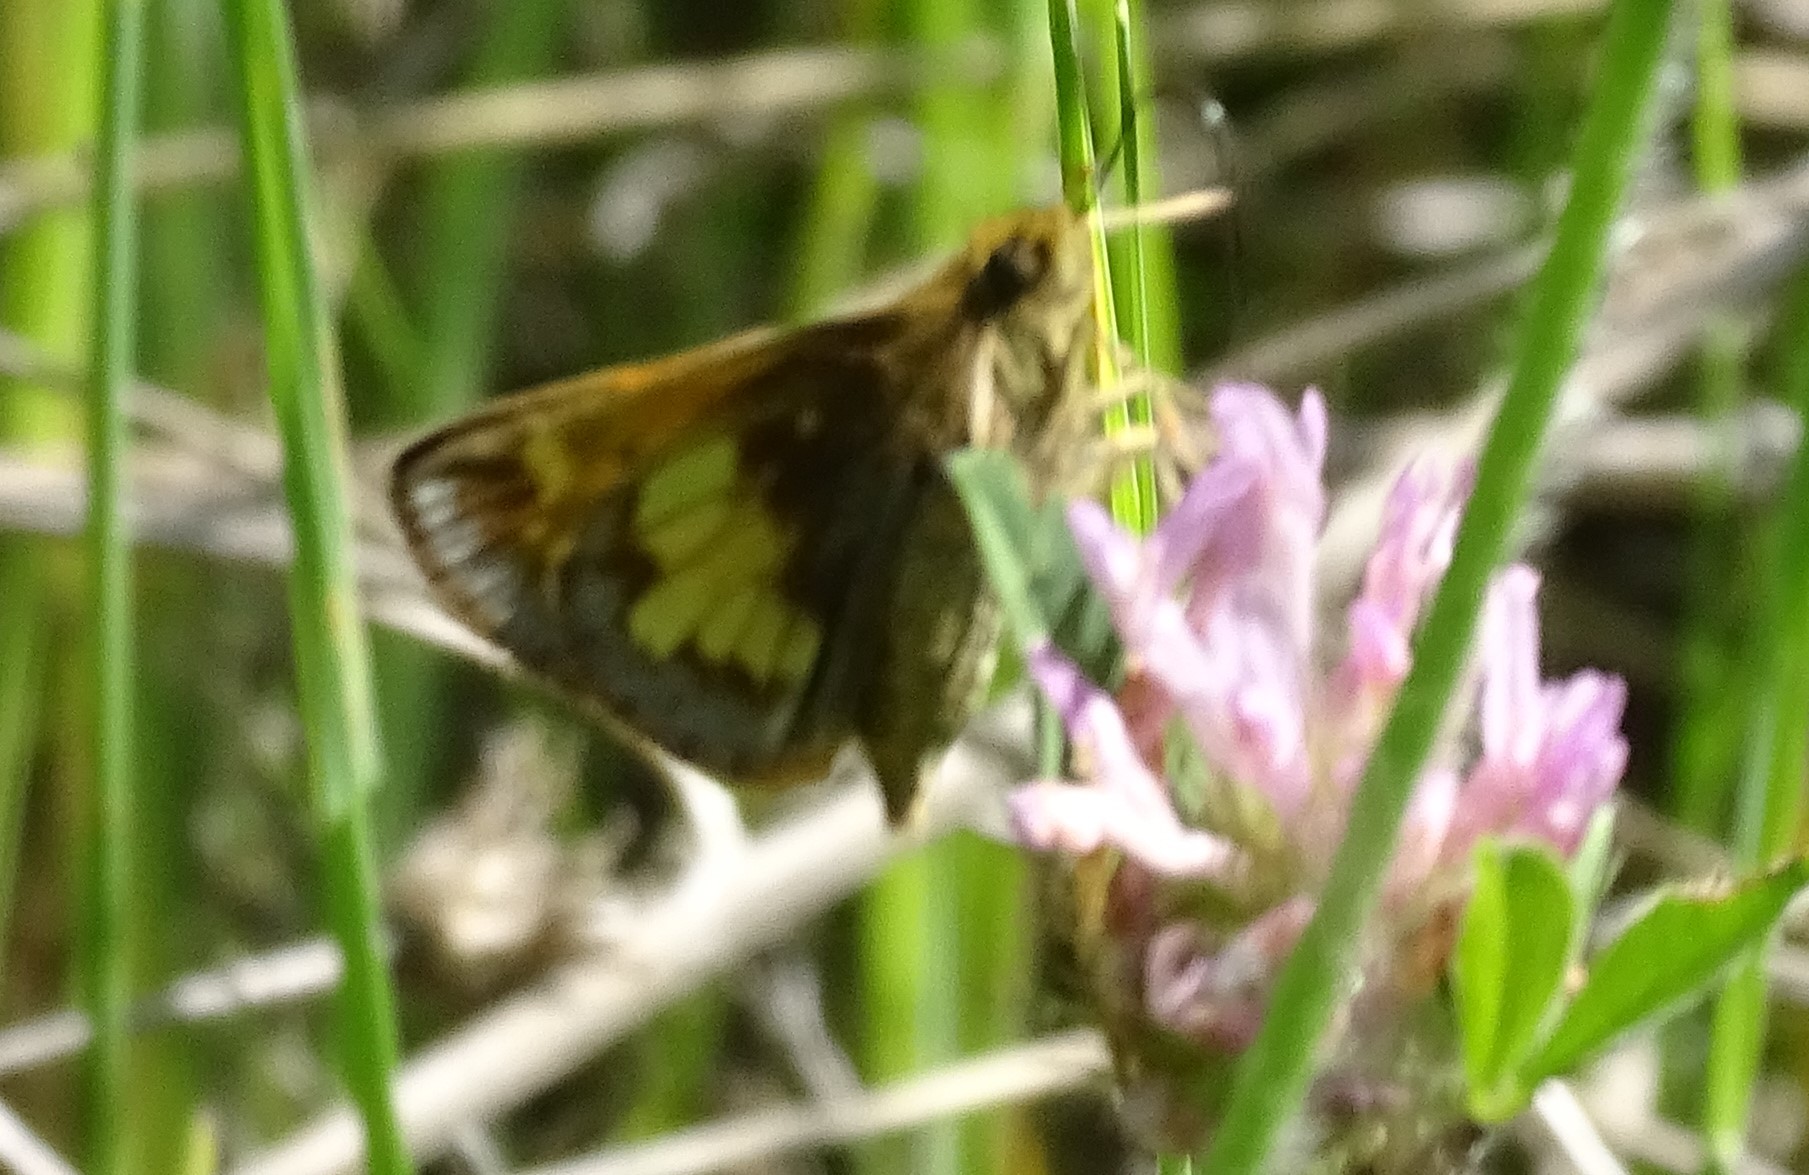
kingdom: Animalia
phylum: Arthropoda
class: Insecta
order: Lepidoptera
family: Hesperiidae
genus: Lon
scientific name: Lon hobomok
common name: Hobomok skipper
